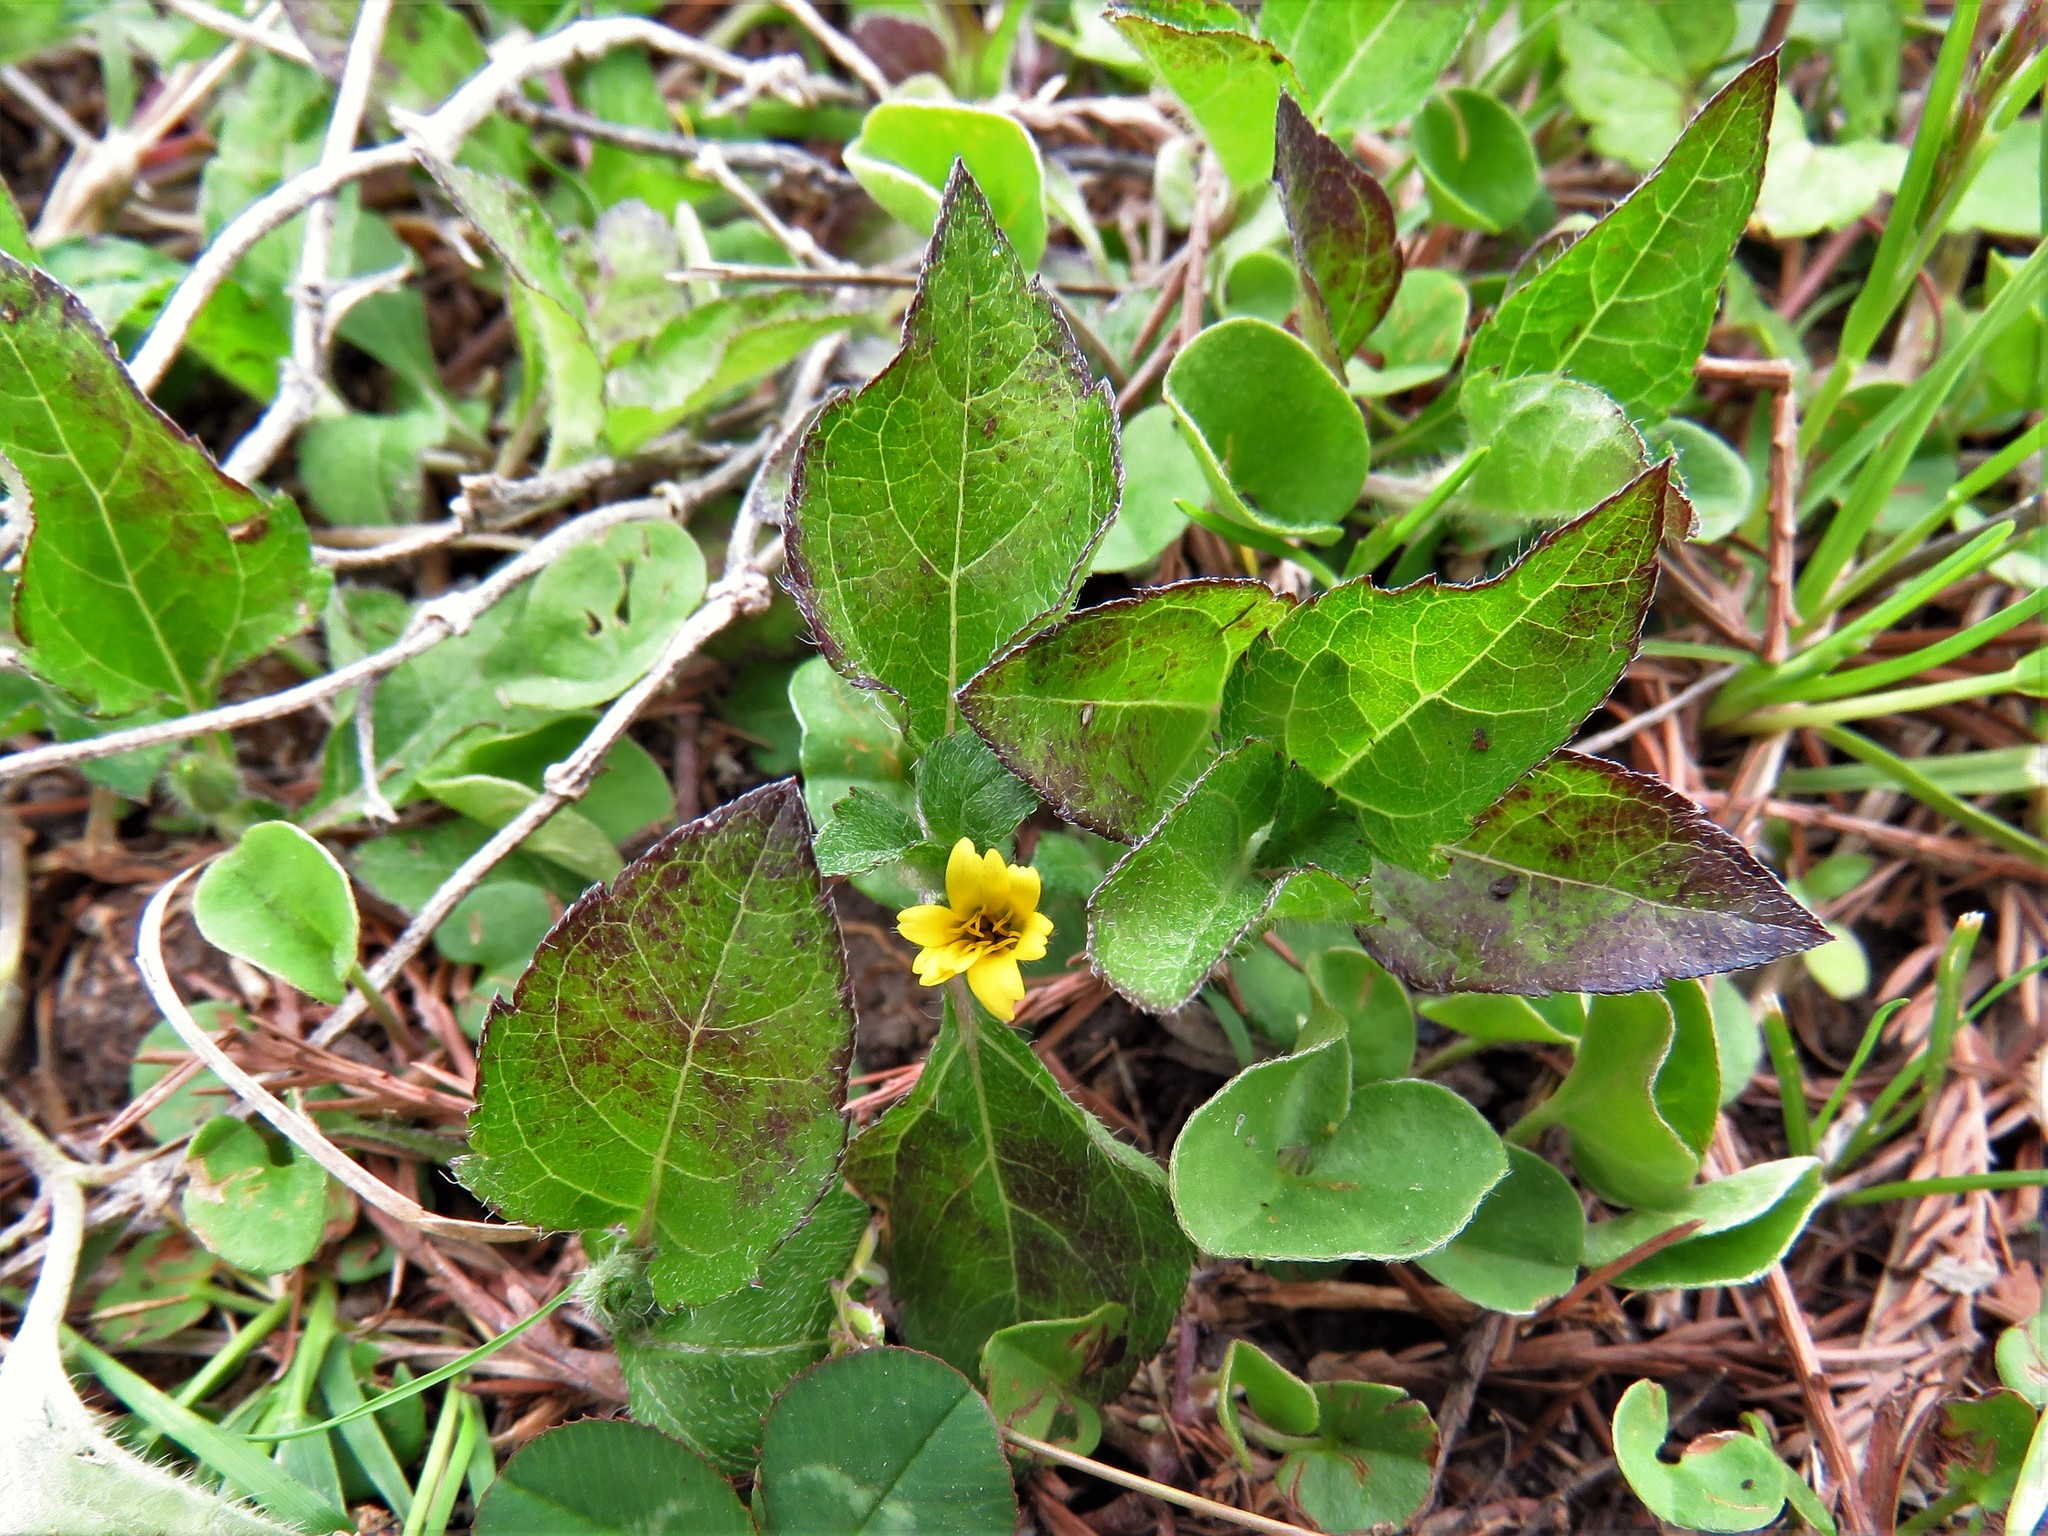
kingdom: Plantae
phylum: Tracheophyta
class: Magnoliopsida
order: Asterales
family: Asteraceae
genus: Calyptocarpus
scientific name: Calyptocarpus vialis
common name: Straggler daisy
